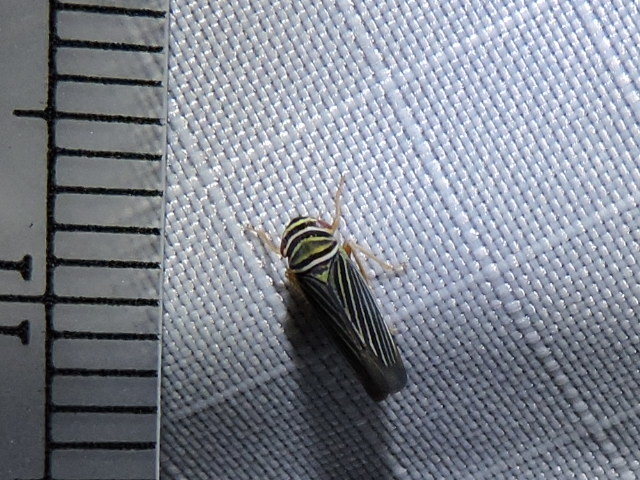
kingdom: Animalia
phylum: Arthropoda
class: Insecta
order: Hemiptera
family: Cicadellidae
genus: Tylozygus
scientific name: Tylozygus bifidus
